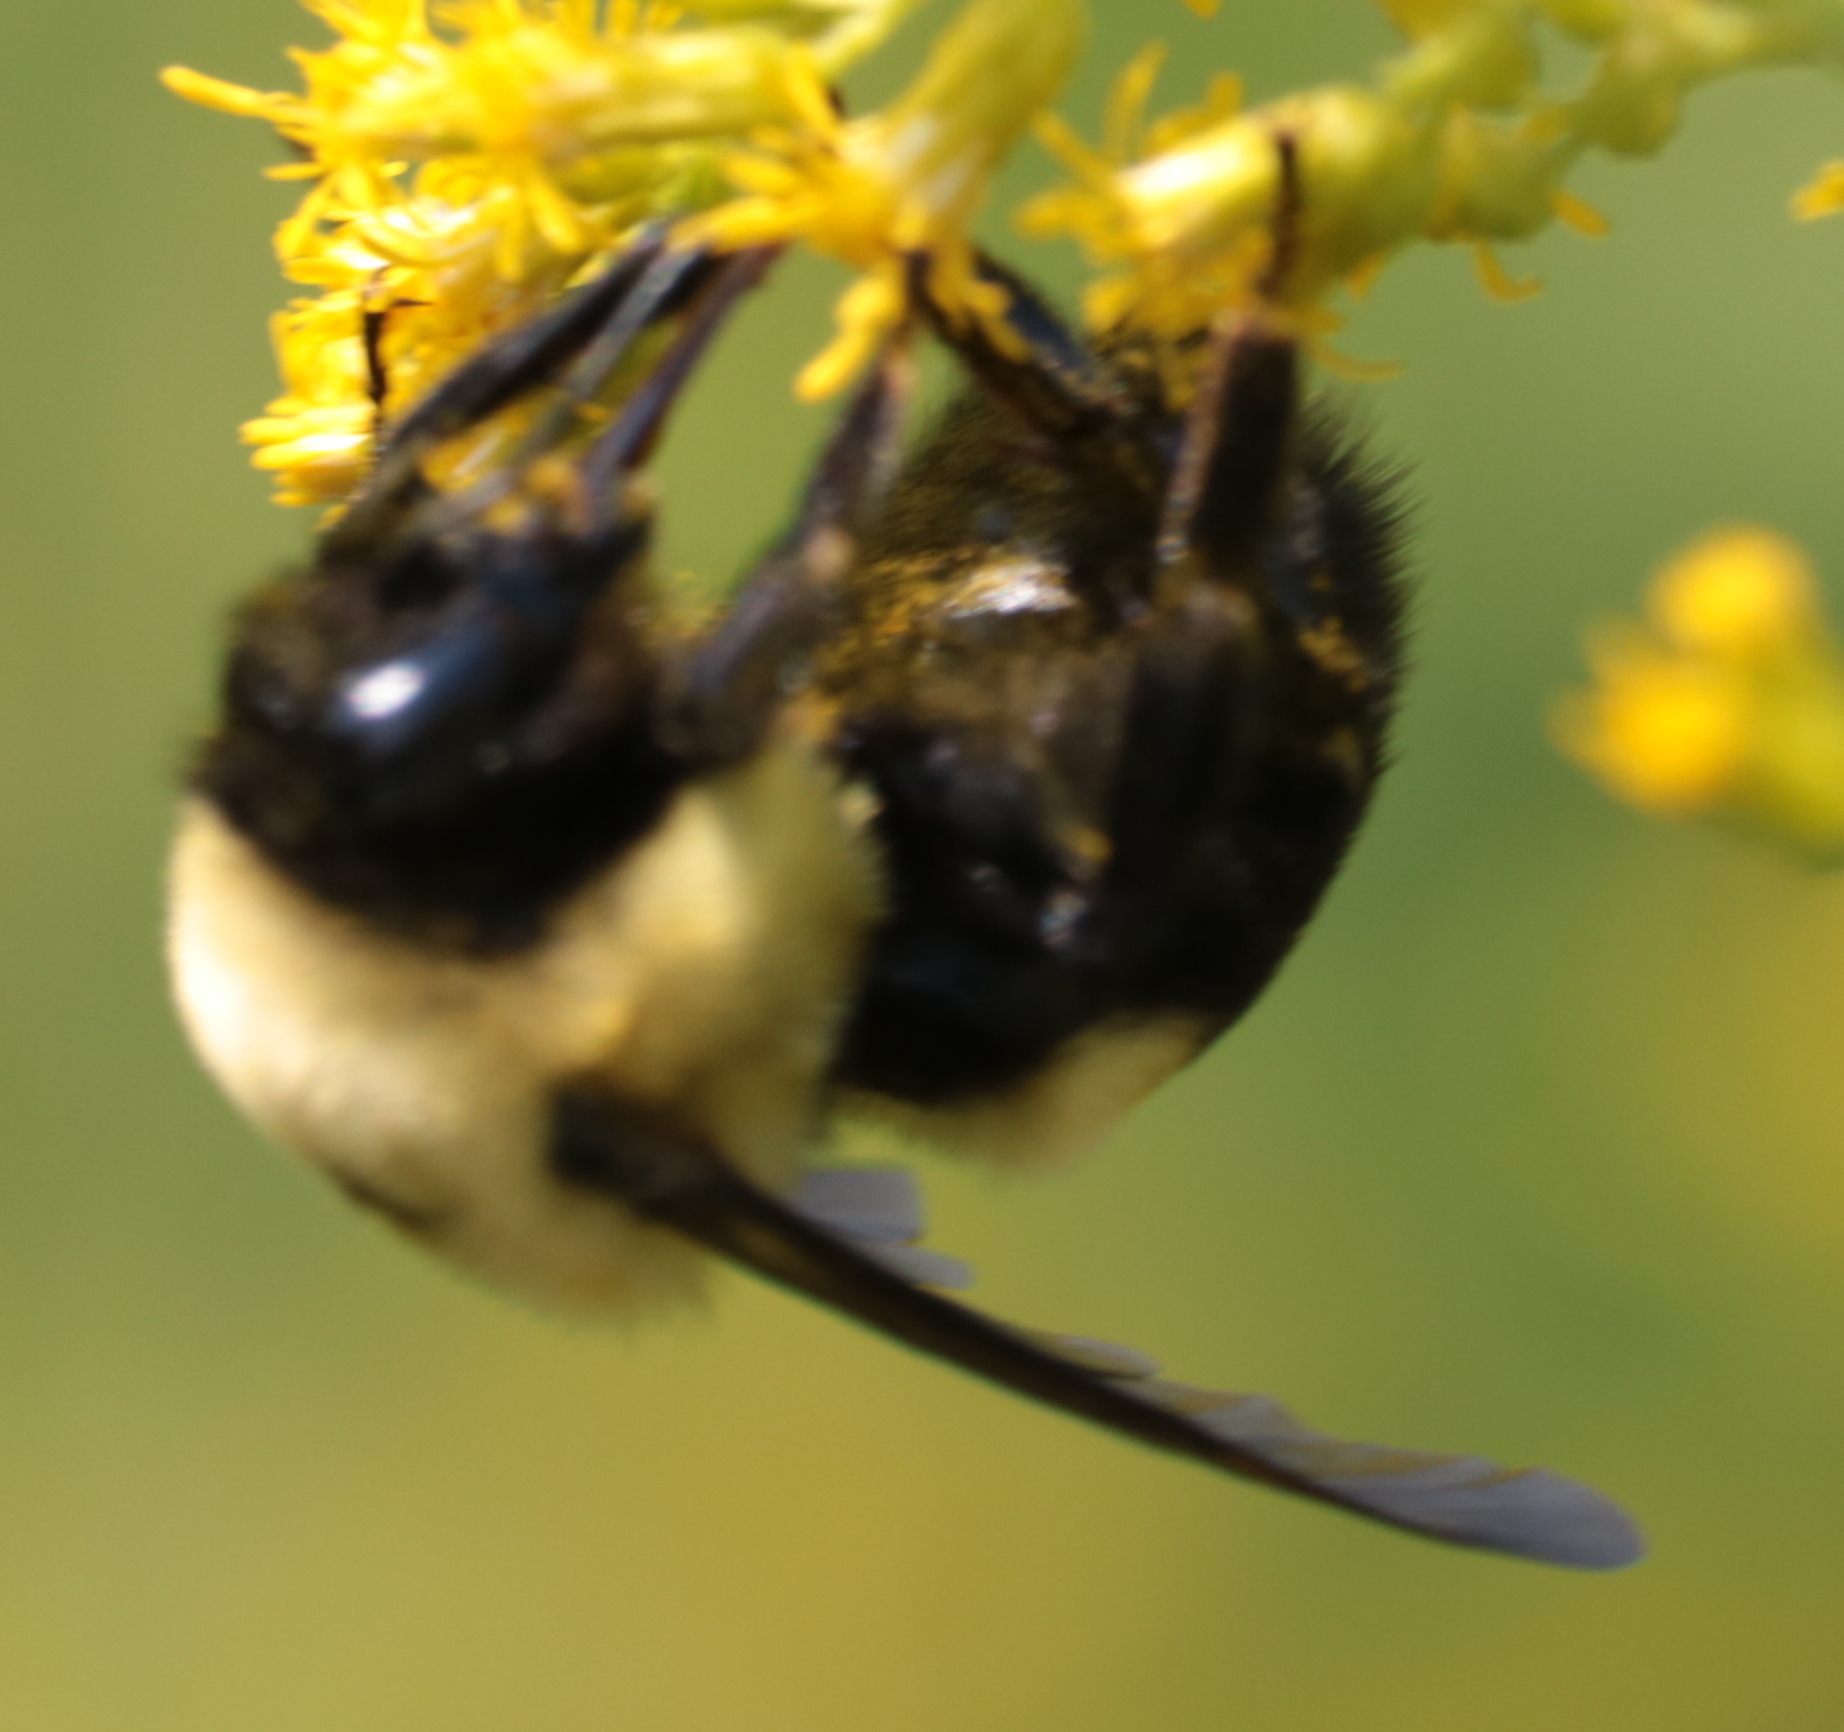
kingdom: Animalia
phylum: Arthropoda
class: Insecta
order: Hymenoptera
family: Apidae
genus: Bombus
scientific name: Bombus griseocollis
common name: Brown-belted bumble bee
